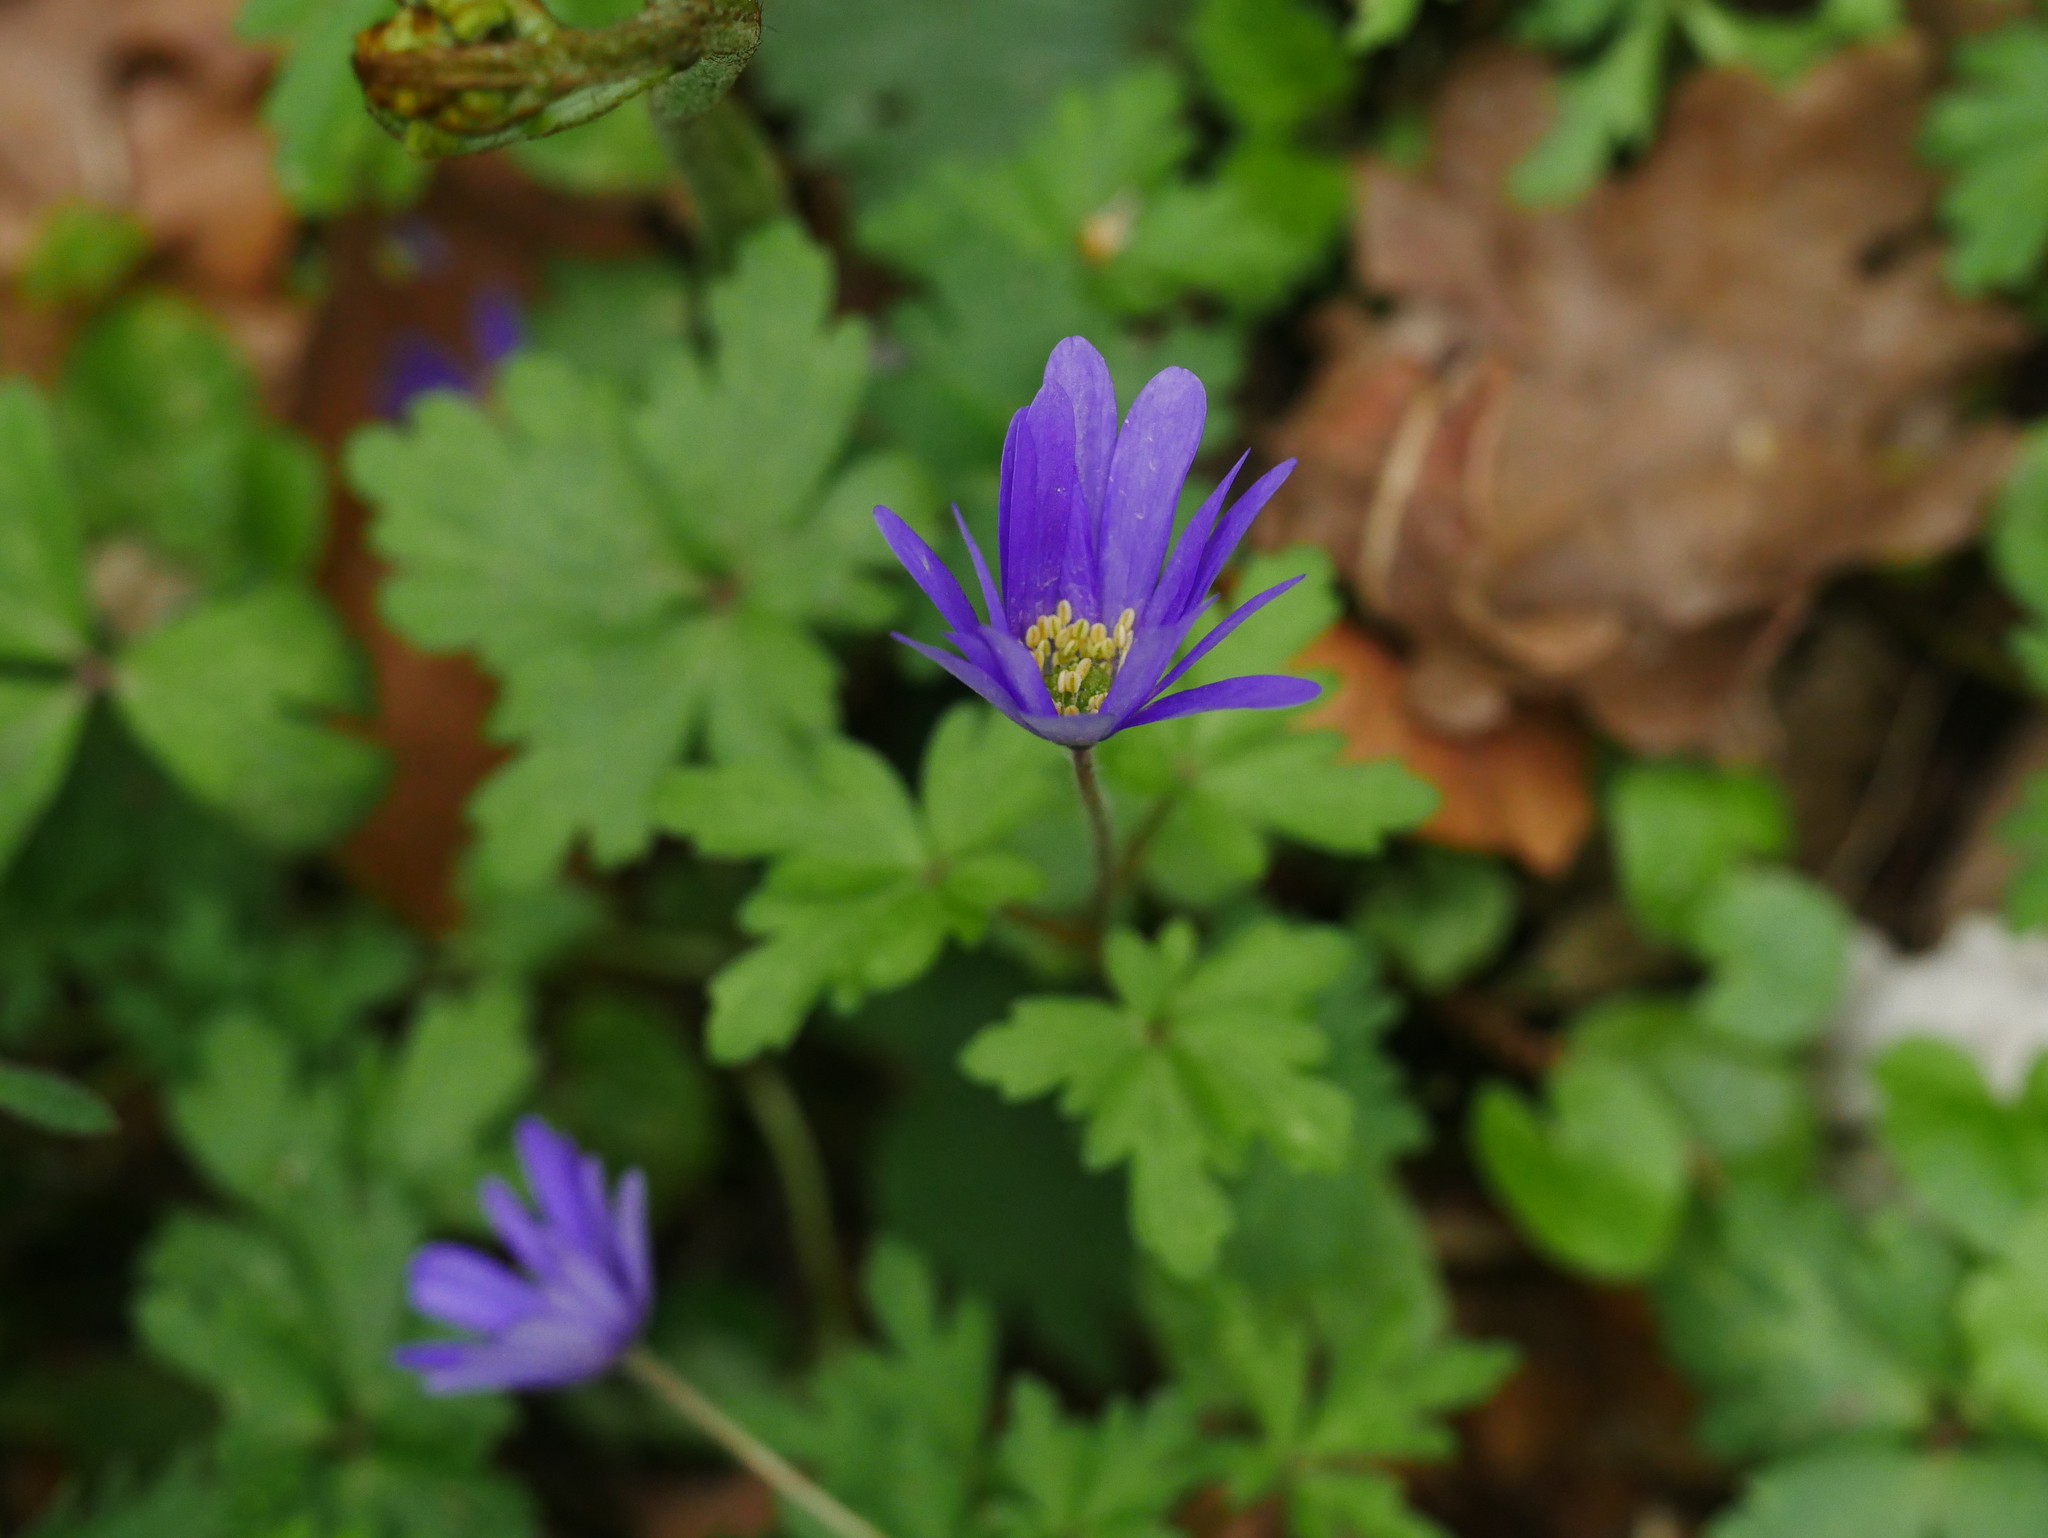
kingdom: Plantae
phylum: Tracheophyta
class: Magnoliopsida
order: Ranunculales
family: Ranunculaceae
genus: Anemone
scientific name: Anemone blanda
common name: Balkan anemone
